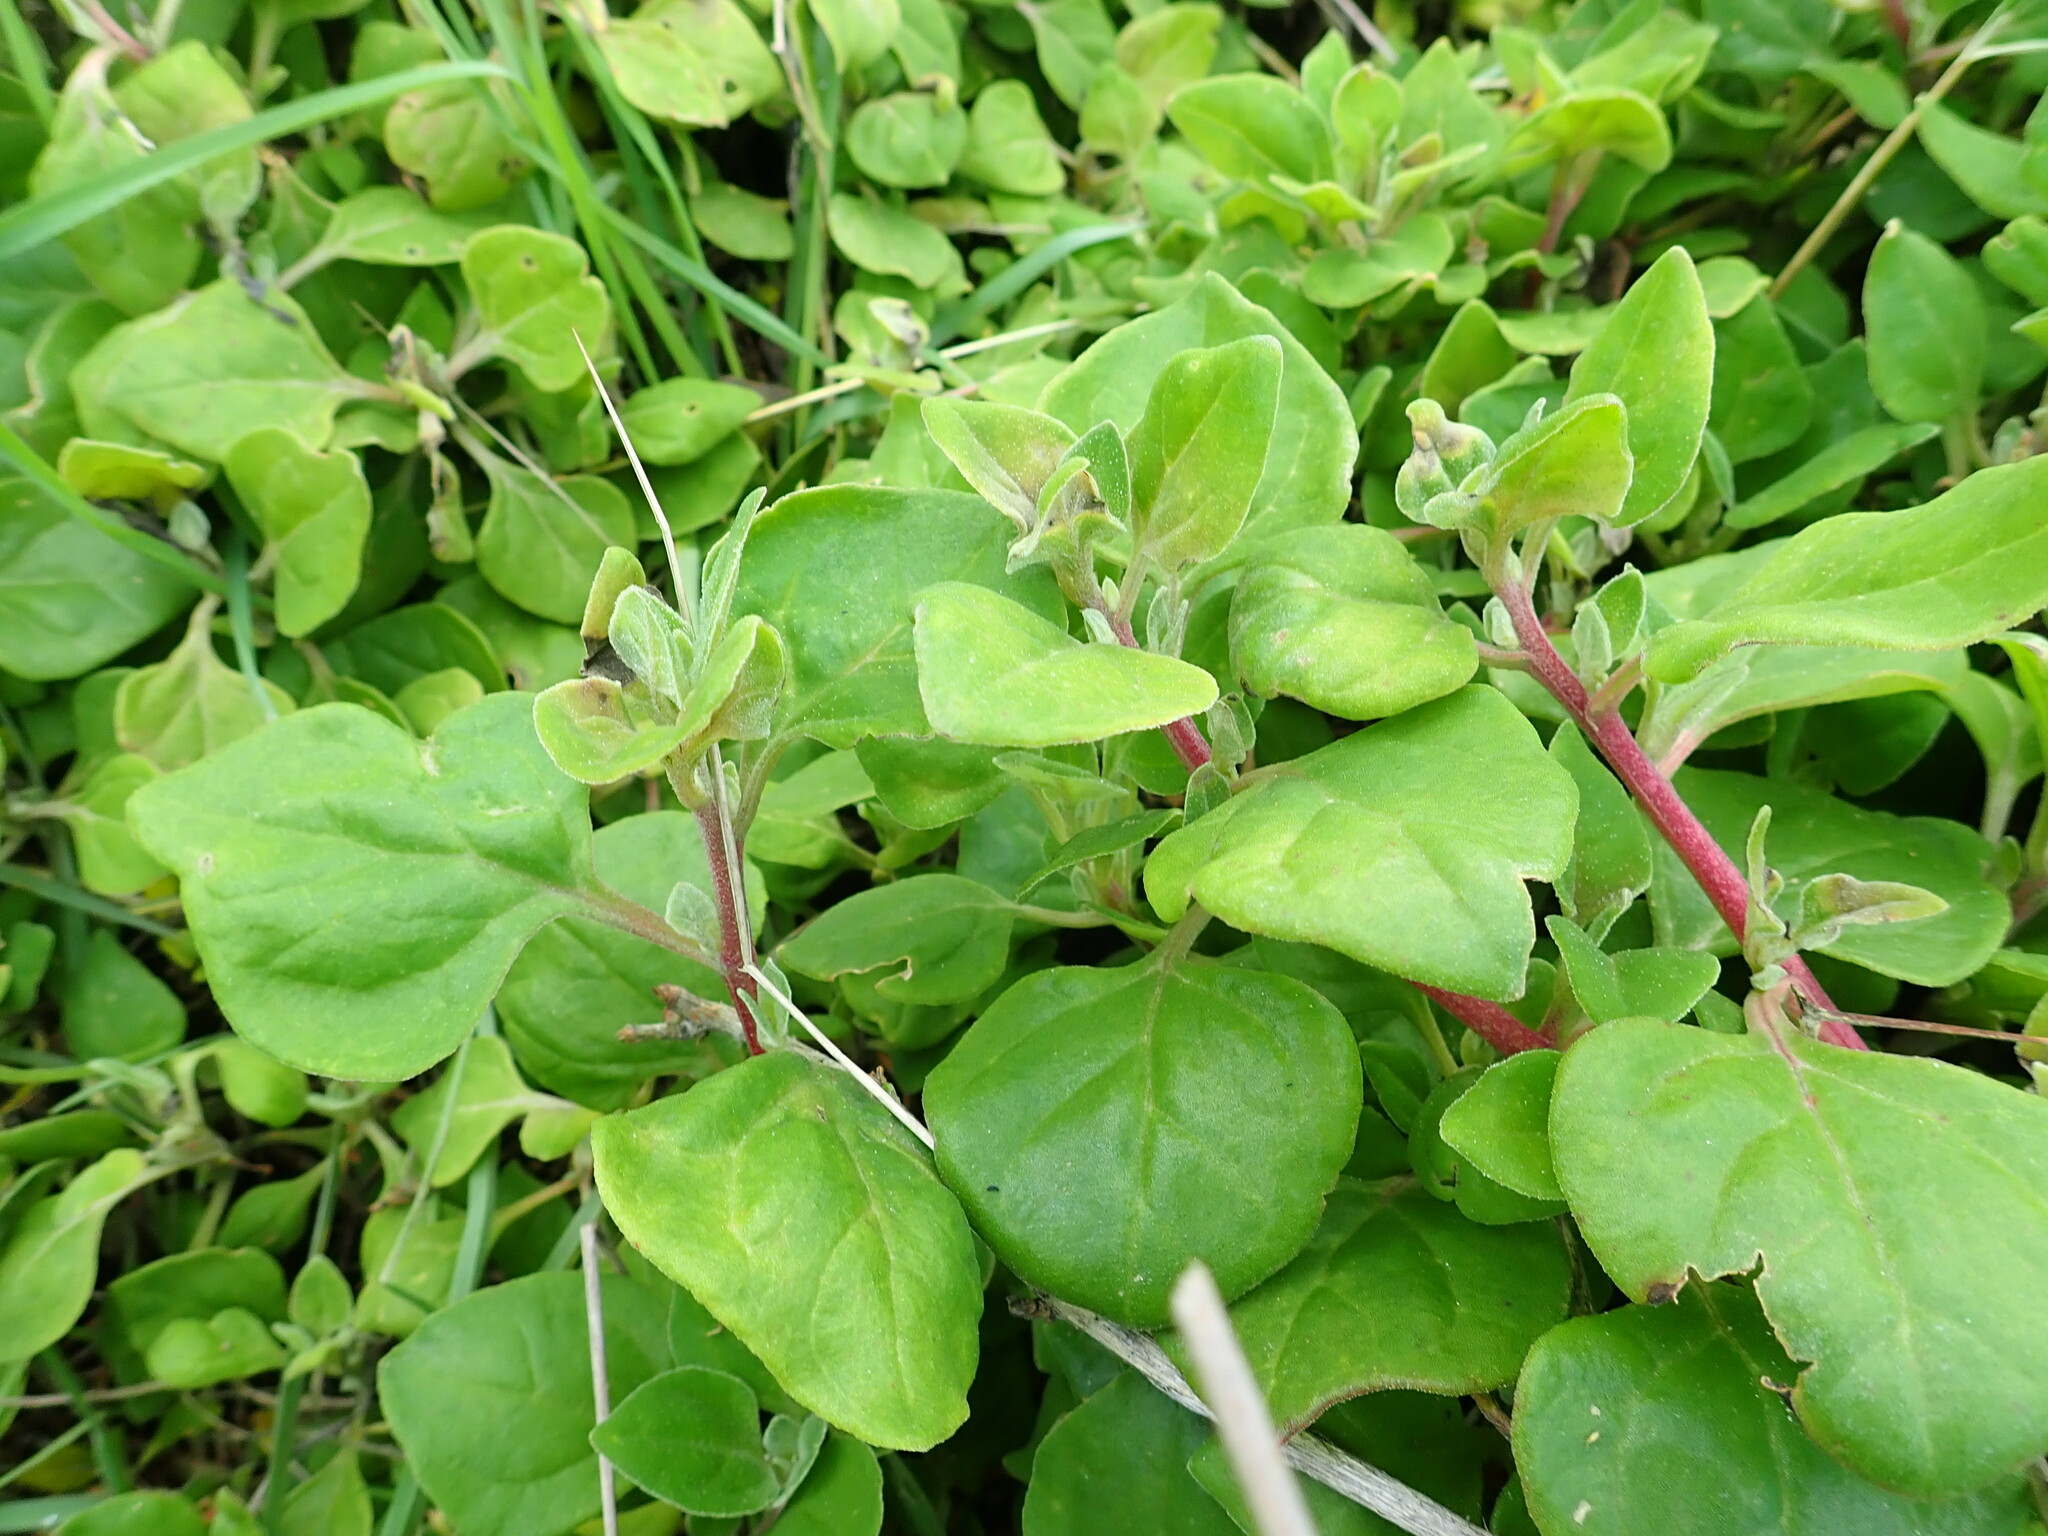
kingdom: Plantae
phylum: Tracheophyta
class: Magnoliopsida
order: Caryophyllales
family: Aizoaceae
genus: Tetragonia
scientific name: Tetragonia implexicoma
